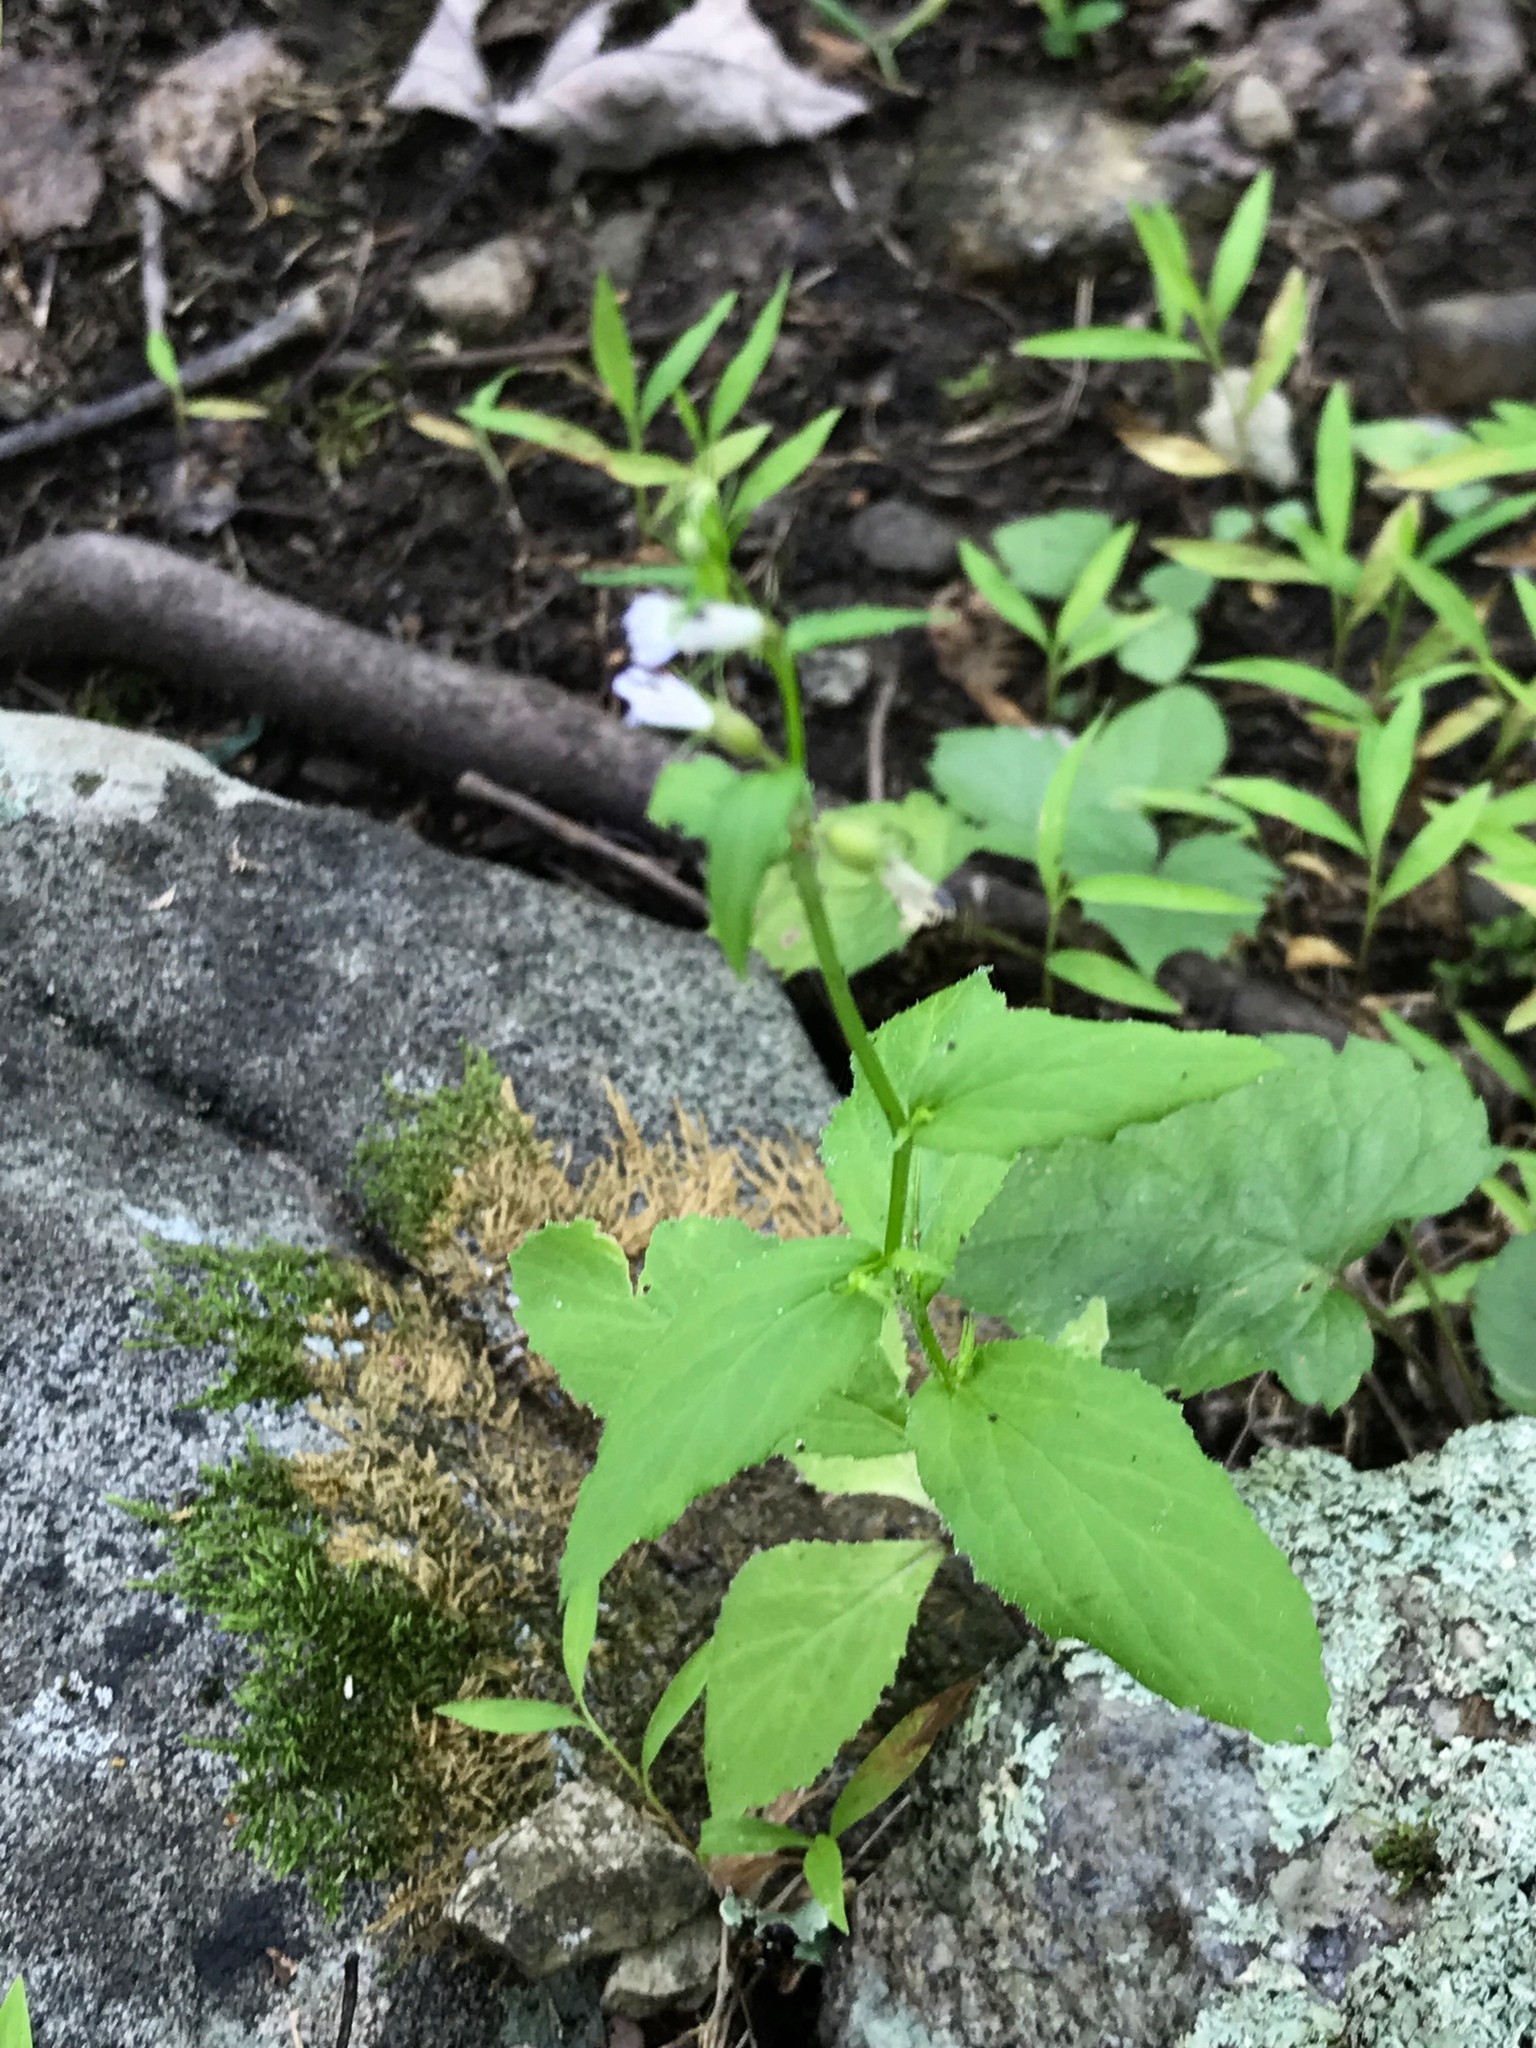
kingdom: Plantae
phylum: Tracheophyta
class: Magnoliopsida
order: Asterales
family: Campanulaceae
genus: Lobelia
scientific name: Lobelia inflata
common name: Indian tobacco
